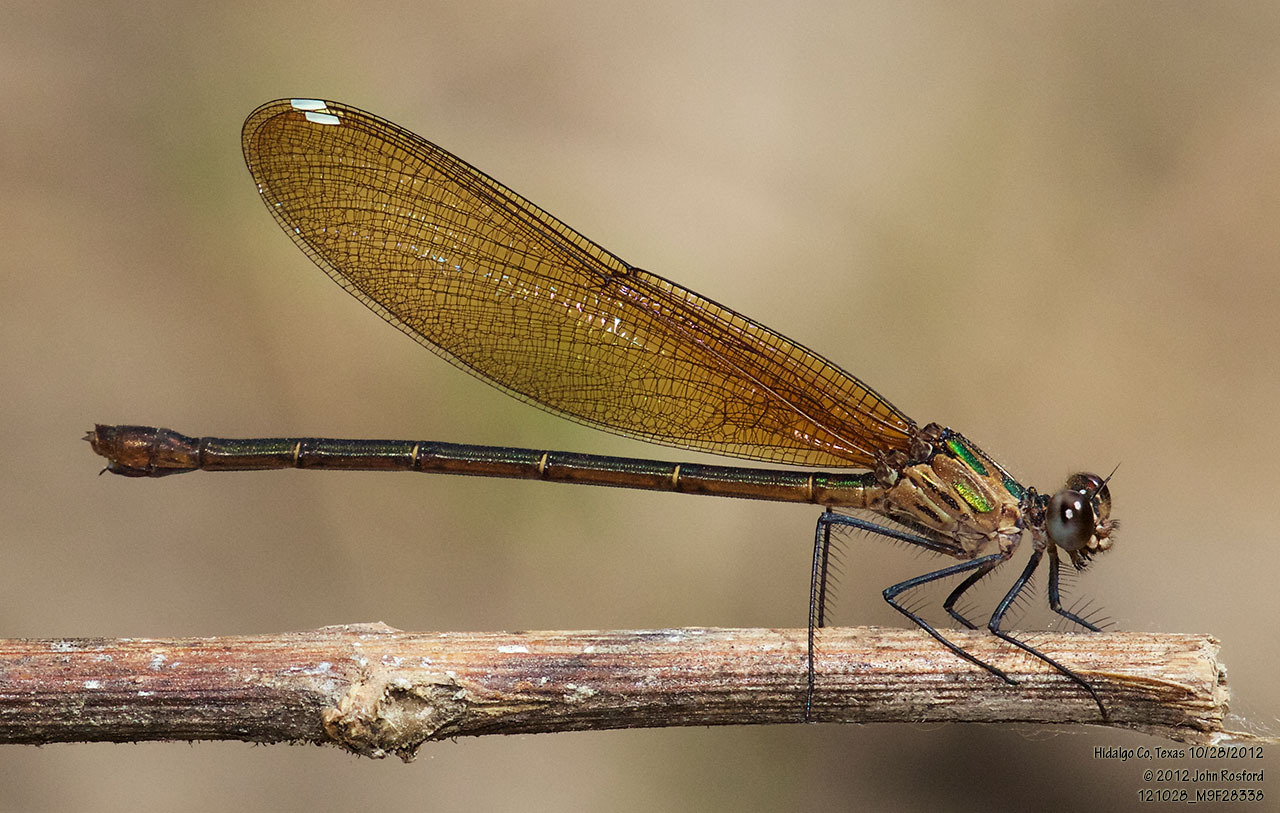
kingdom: Animalia
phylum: Arthropoda
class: Insecta
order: Odonata
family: Calopterygidae
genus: Hetaerina
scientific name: Hetaerina titia
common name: Smoky rubyspot
